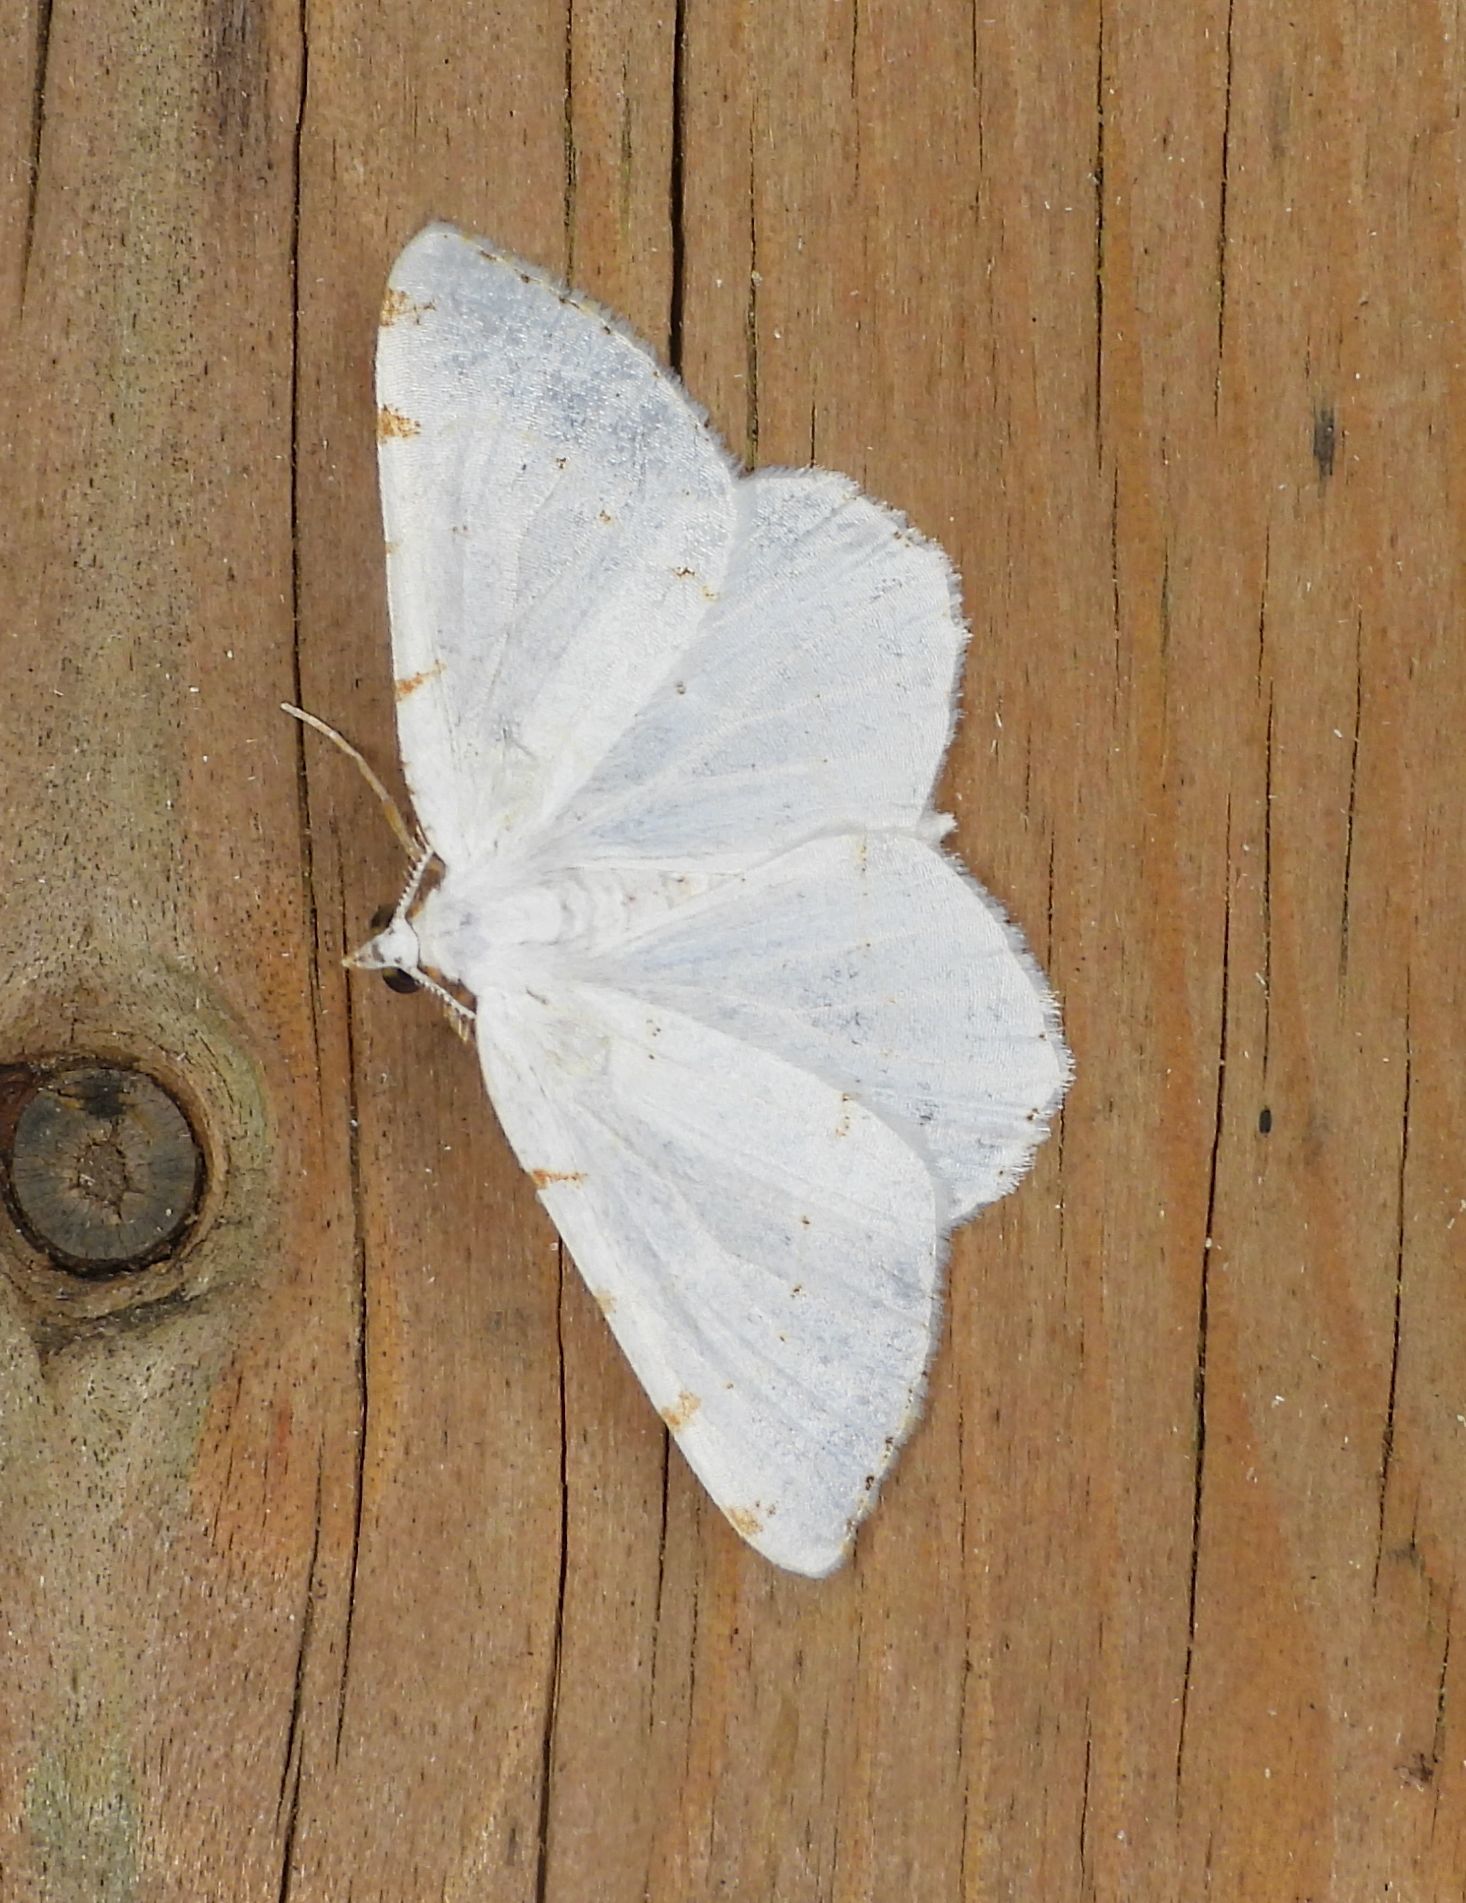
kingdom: Animalia
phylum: Arthropoda
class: Insecta
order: Lepidoptera
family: Geometridae
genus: Macaria
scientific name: Macaria pustularia
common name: Lesser maple spanworm moth
